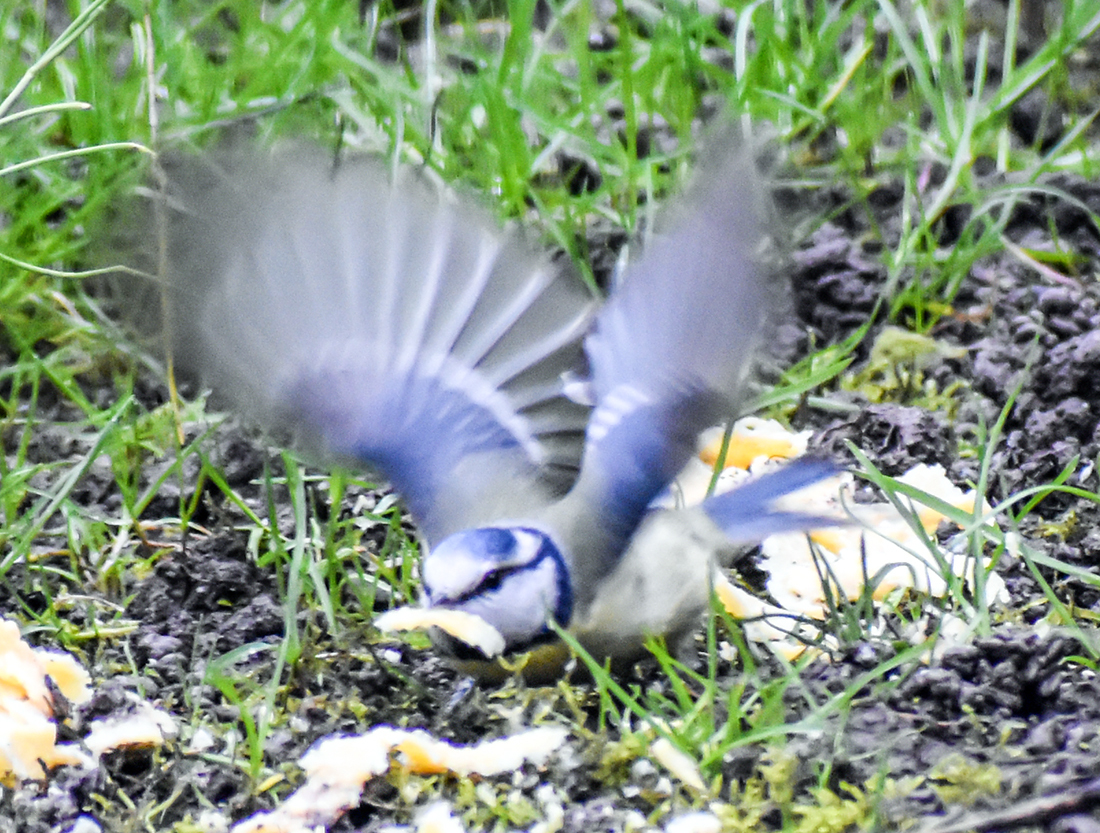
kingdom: Animalia
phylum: Chordata
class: Aves
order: Passeriformes
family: Paridae
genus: Cyanistes
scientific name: Cyanistes caeruleus
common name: Eurasian blue tit
